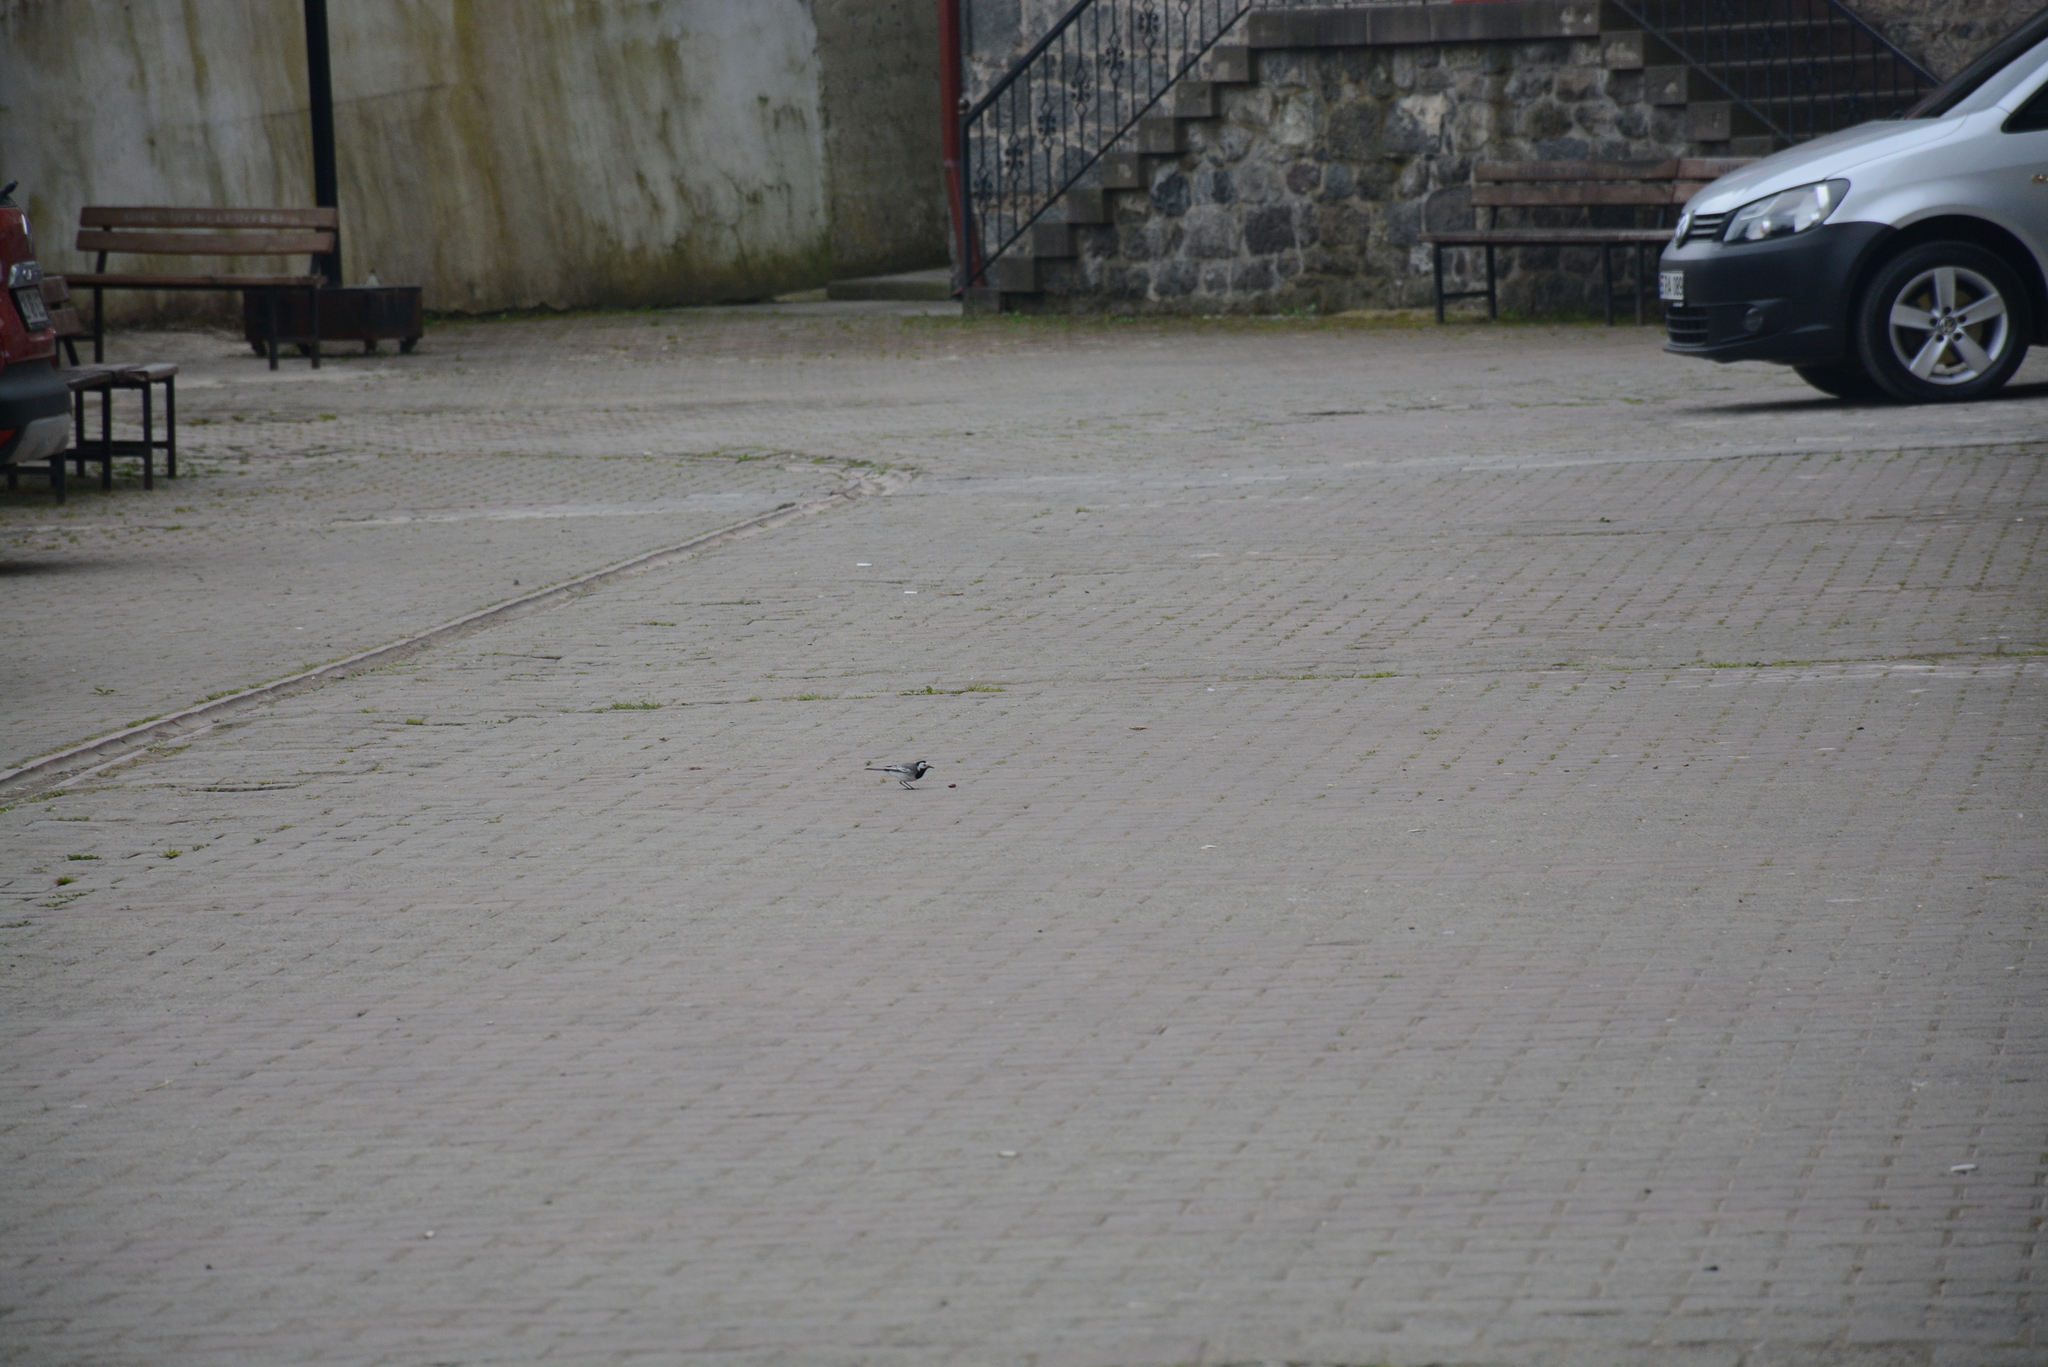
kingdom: Animalia
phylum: Chordata
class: Aves
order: Passeriformes
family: Motacillidae
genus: Motacilla
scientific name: Motacilla alba
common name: White wagtail
